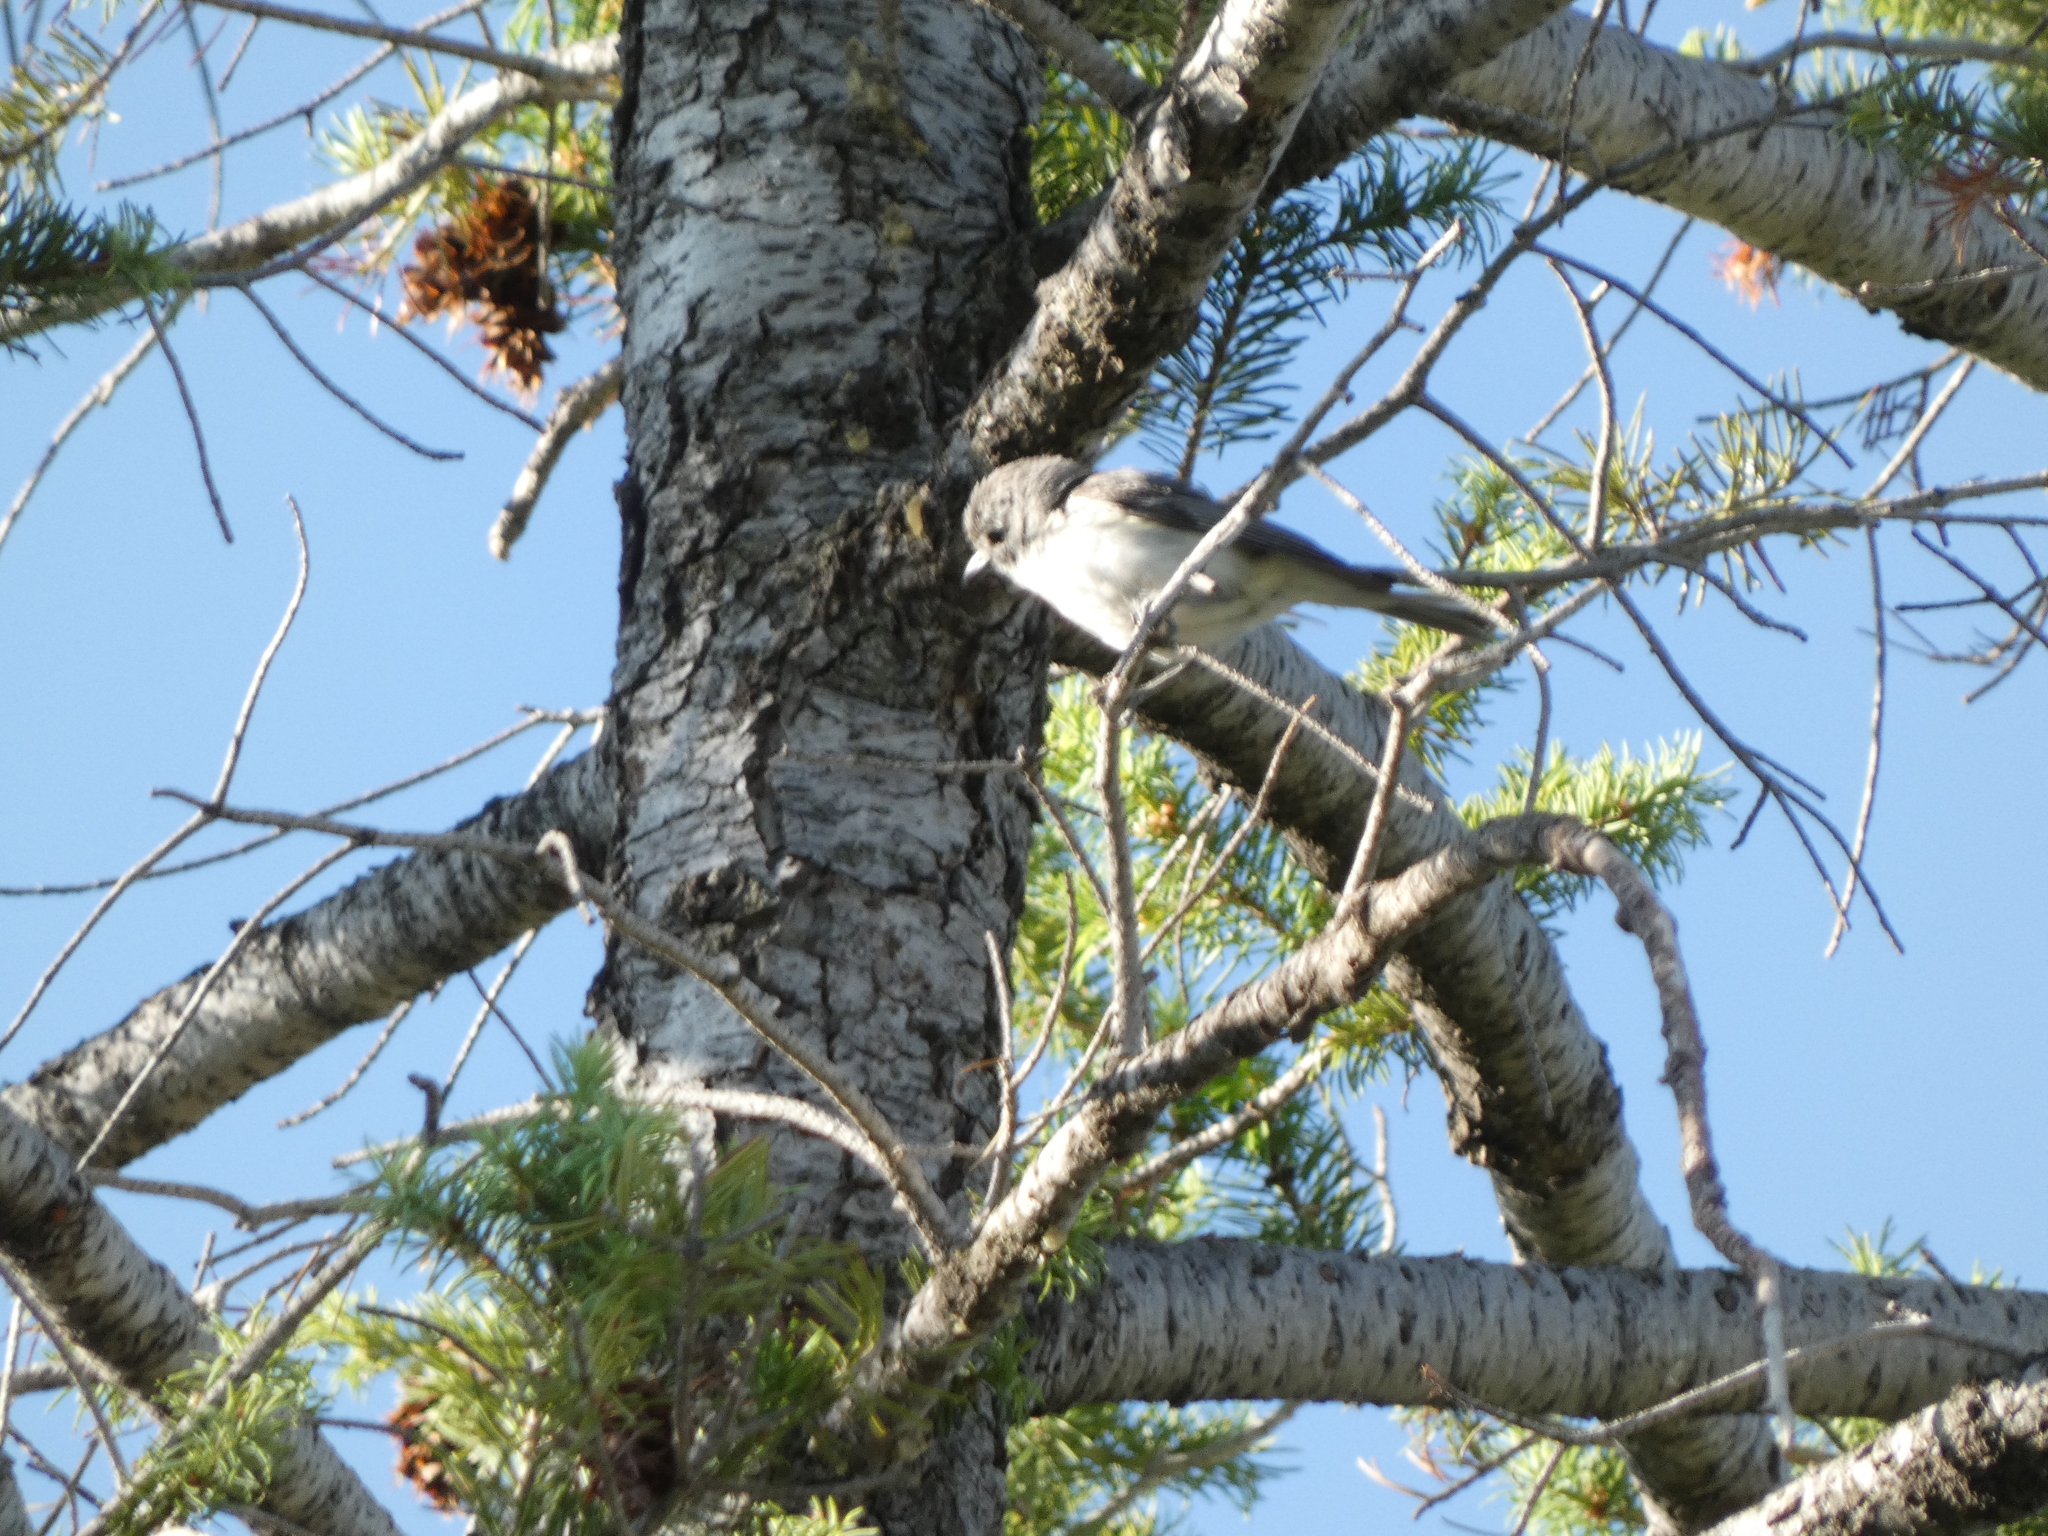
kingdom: Animalia
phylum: Chordata
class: Aves
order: Passeriformes
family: Vireonidae
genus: Vireo
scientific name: Vireo plumbeus
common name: Plumbeous vireo
